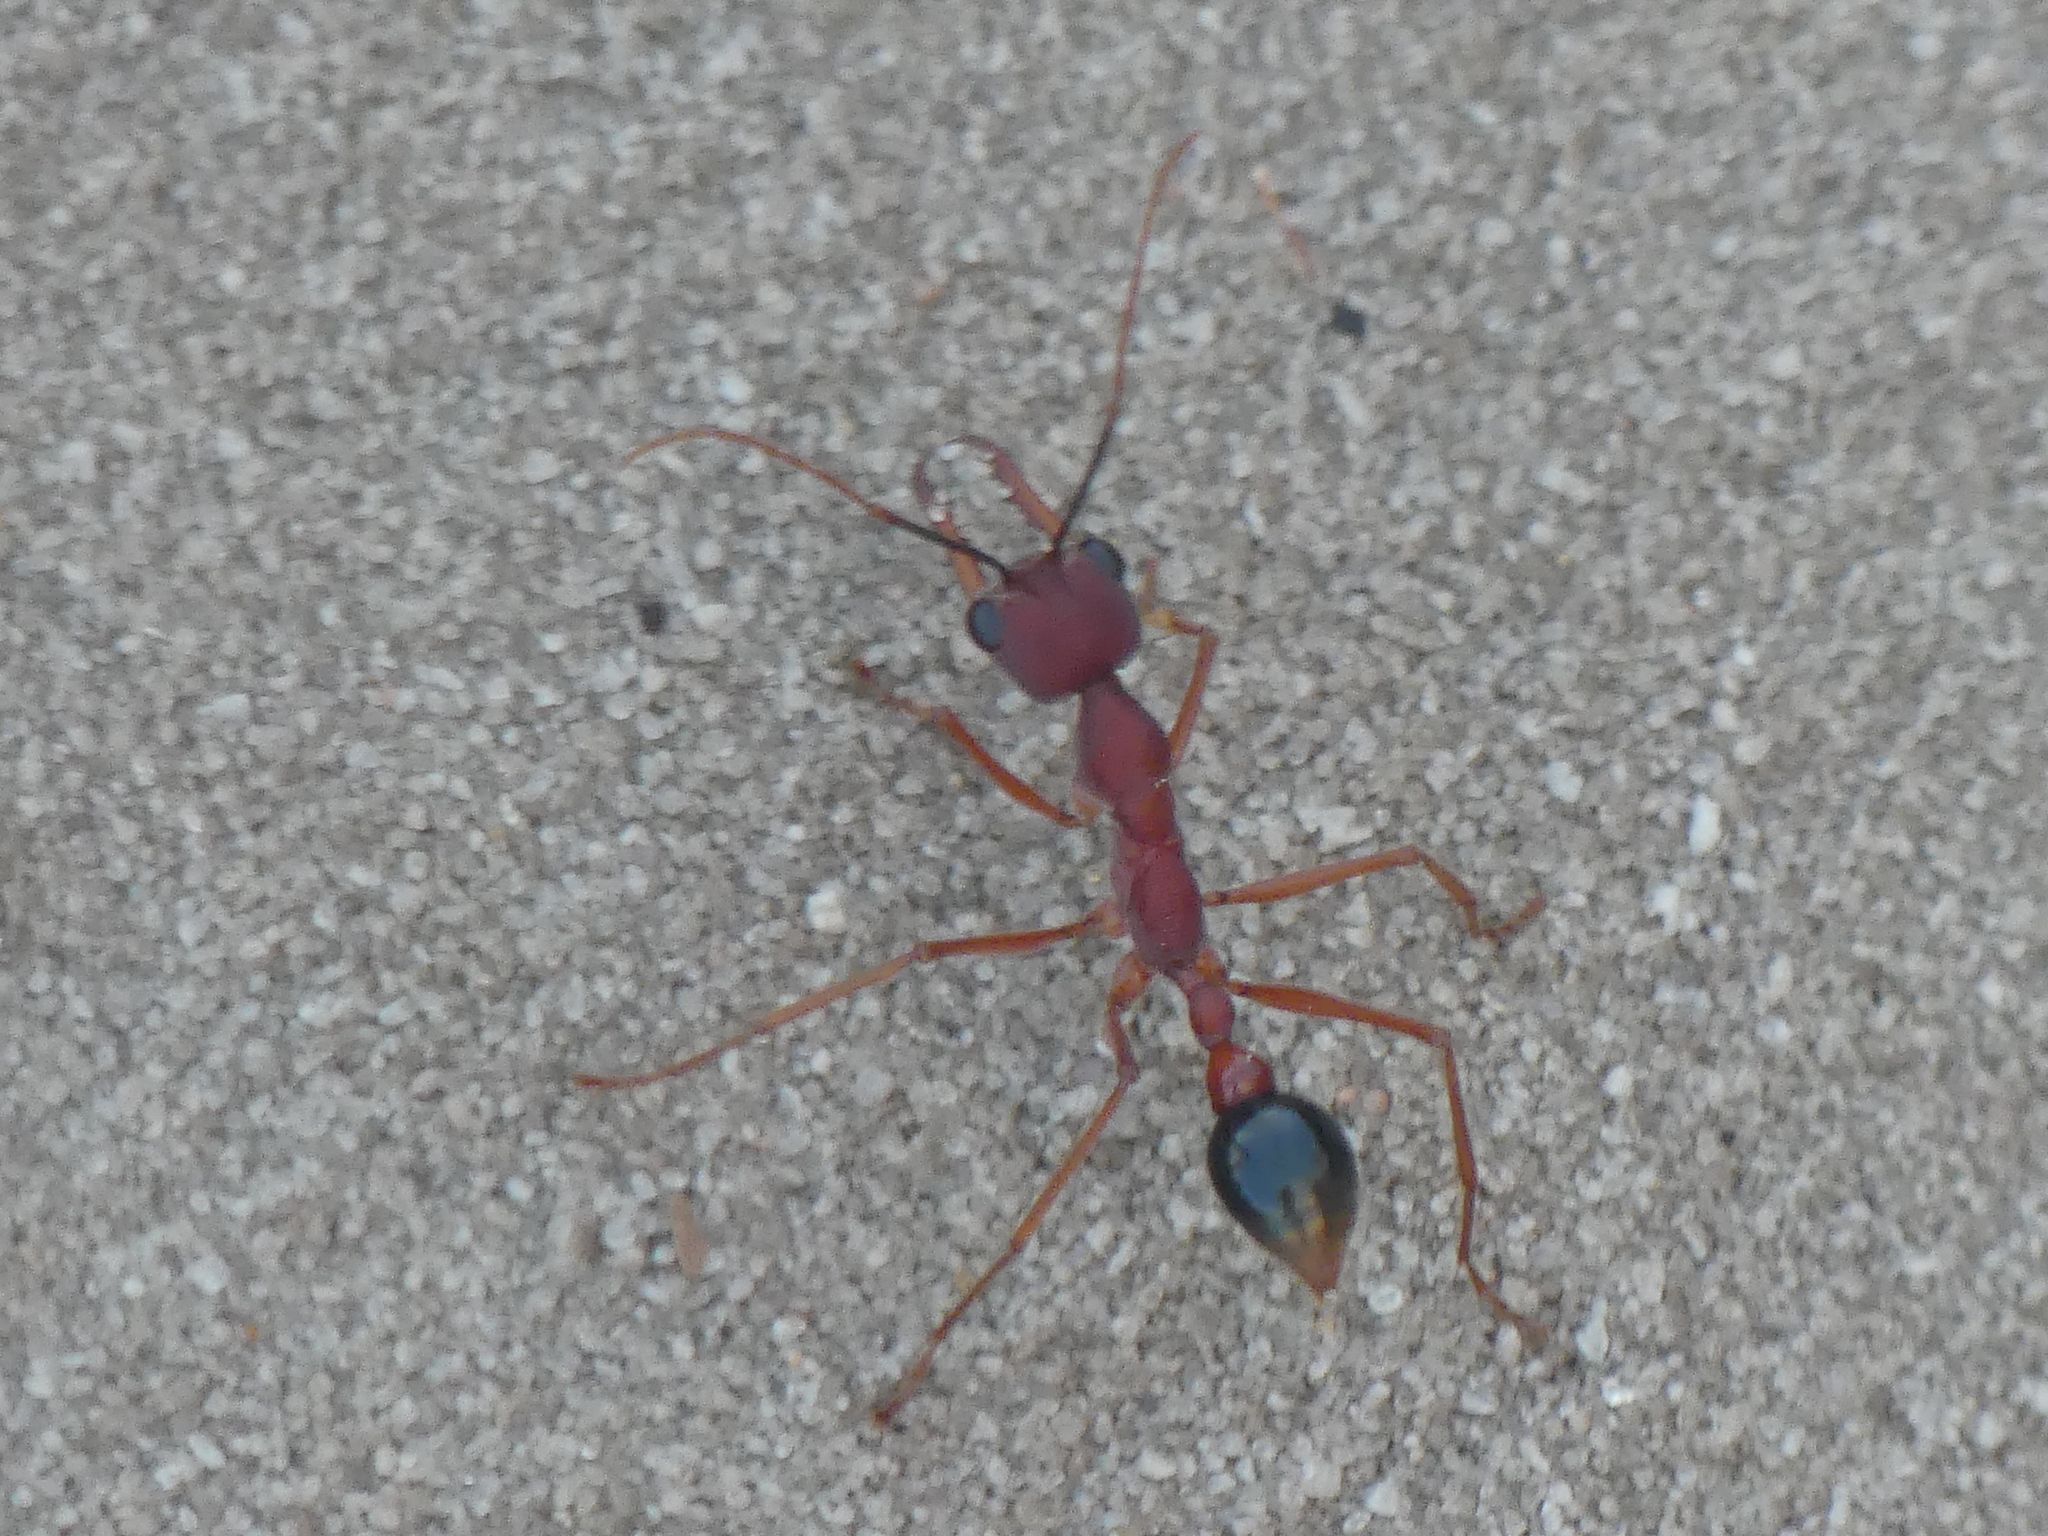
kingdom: Animalia
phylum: Arthropoda
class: Insecta
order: Hymenoptera
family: Formicidae
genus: Myrmecia
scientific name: Myrmecia analis
